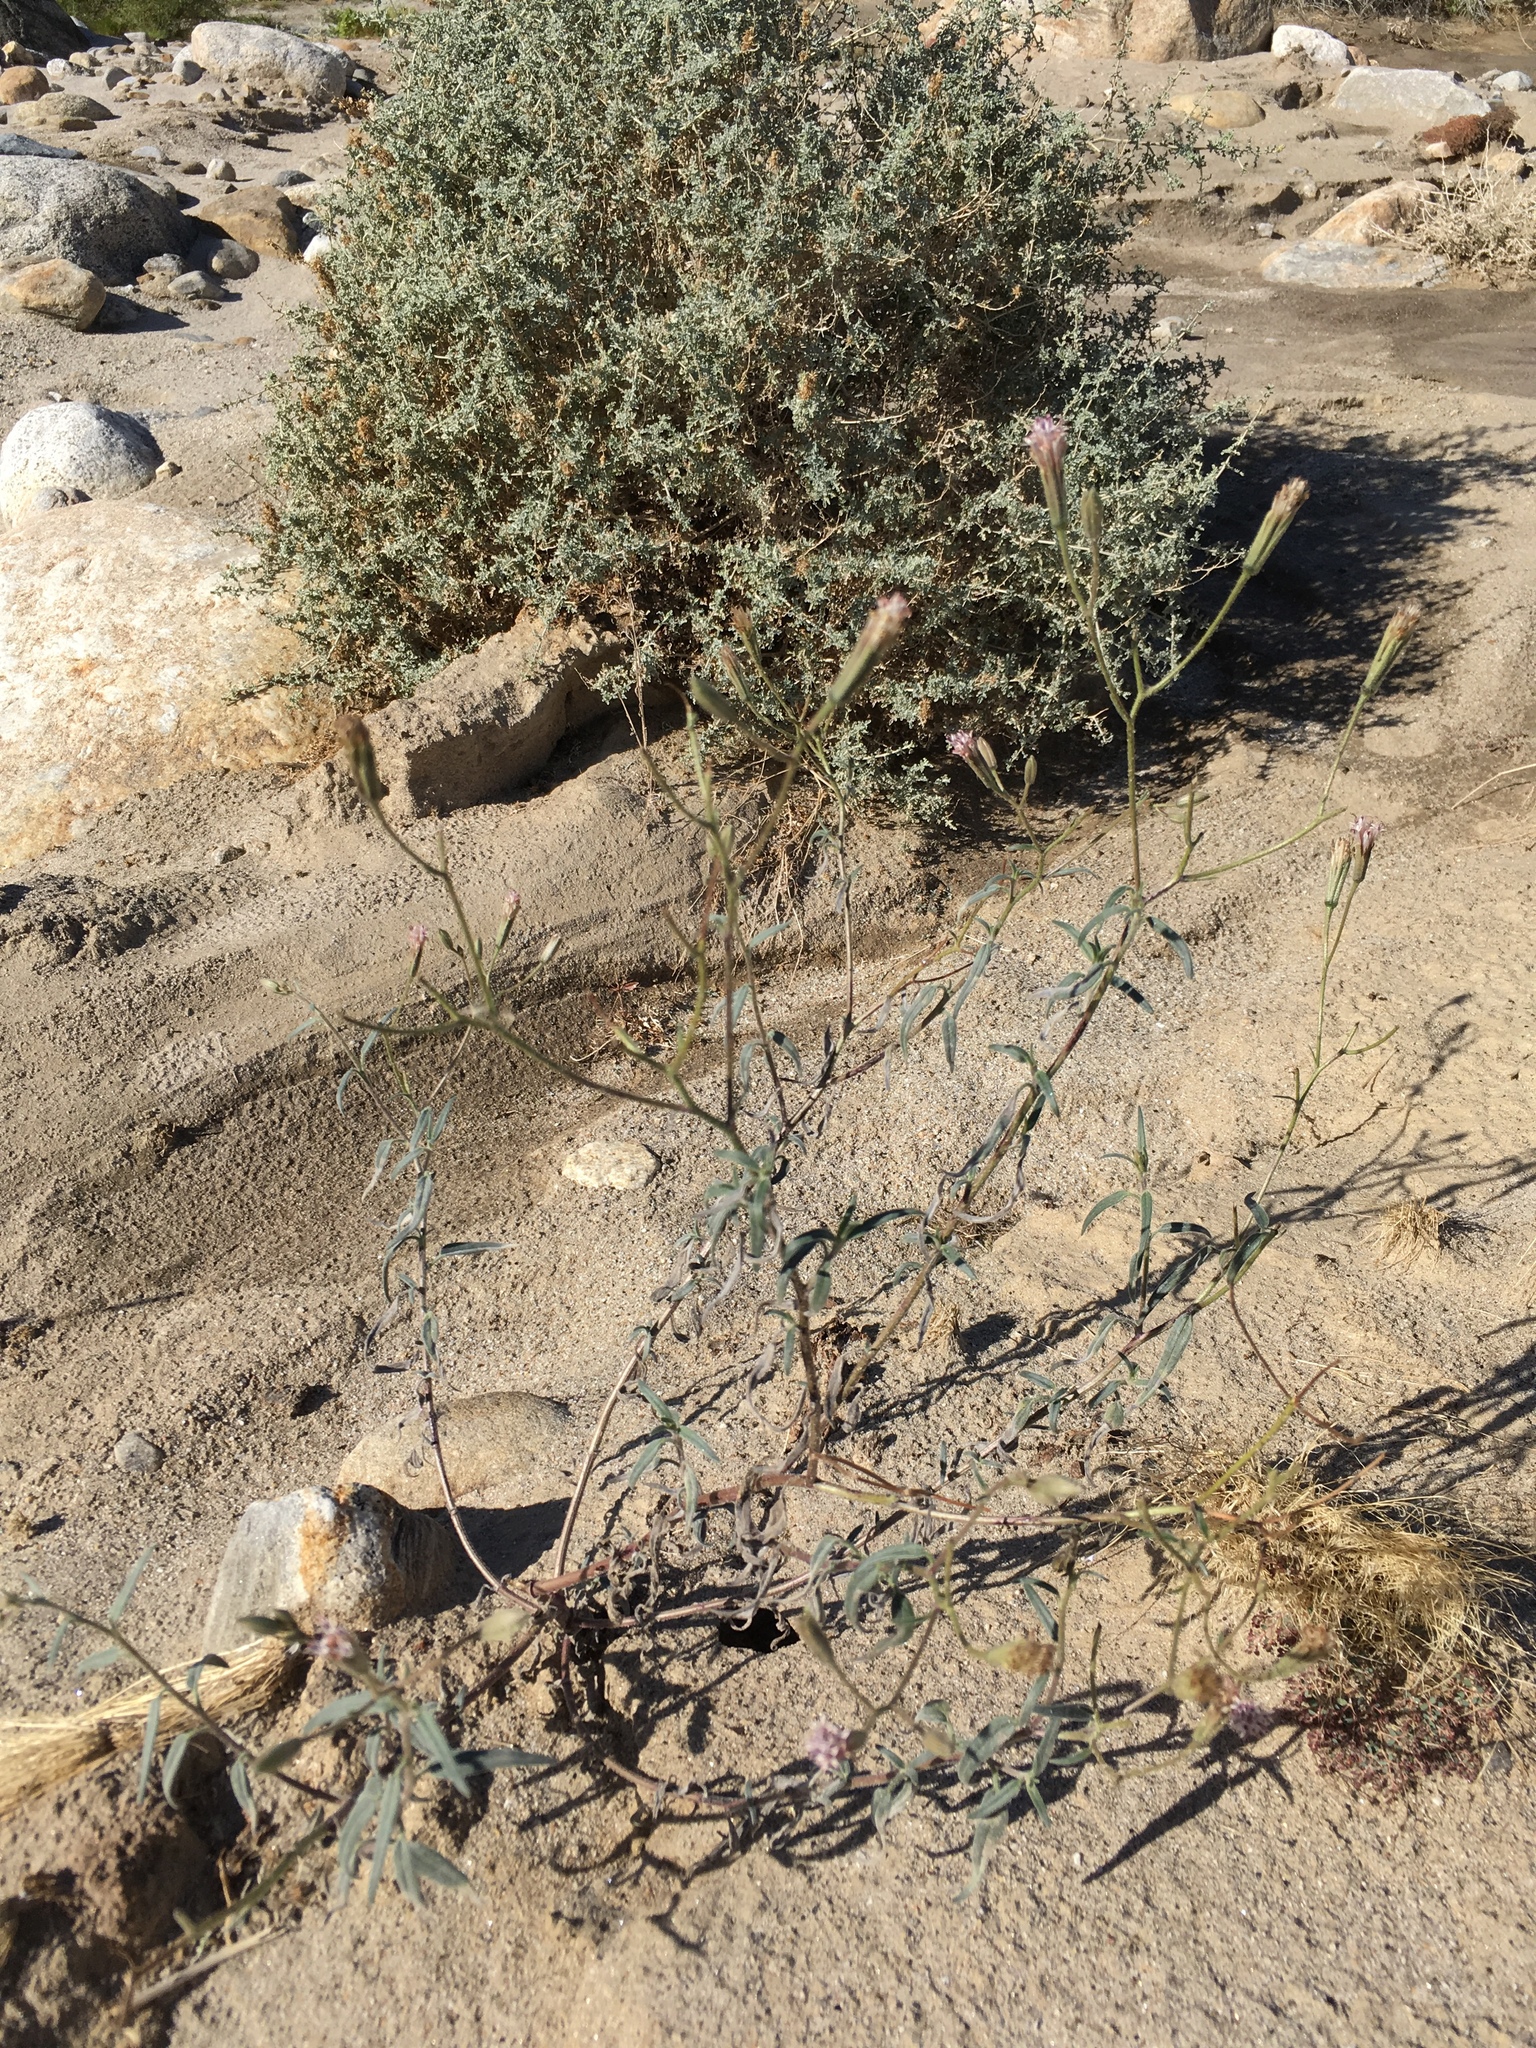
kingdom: Plantae
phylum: Tracheophyta
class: Magnoliopsida
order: Asterales
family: Asteraceae
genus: Palafoxia
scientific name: Palafoxia arida
